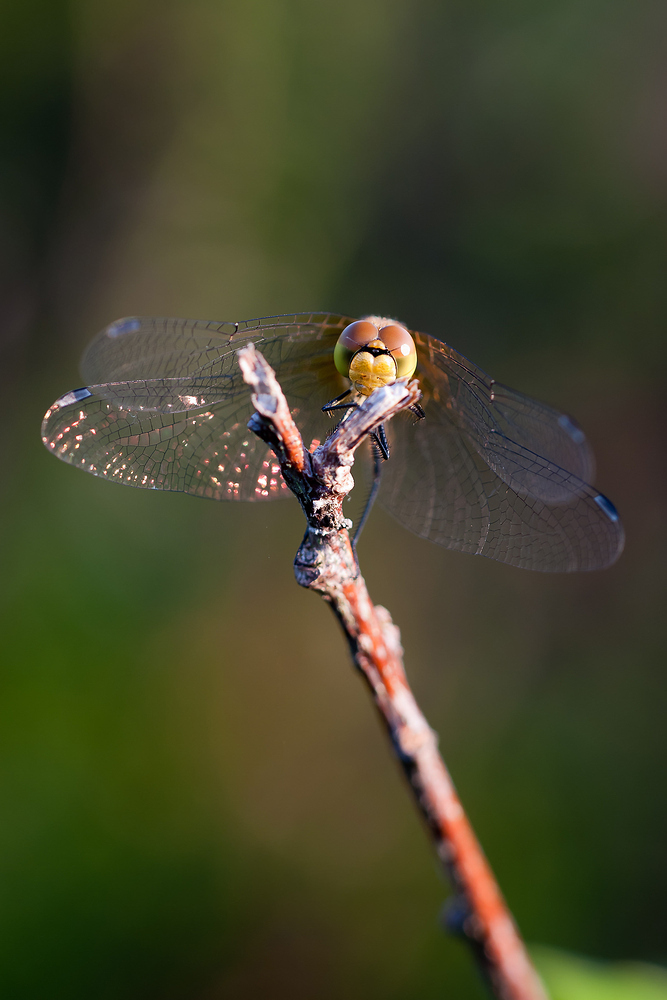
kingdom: Animalia
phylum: Arthropoda
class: Insecta
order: Odonata
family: Libellulidae
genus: Sympetrum
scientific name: Sympetrum sanguineum
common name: Ruddy darter
